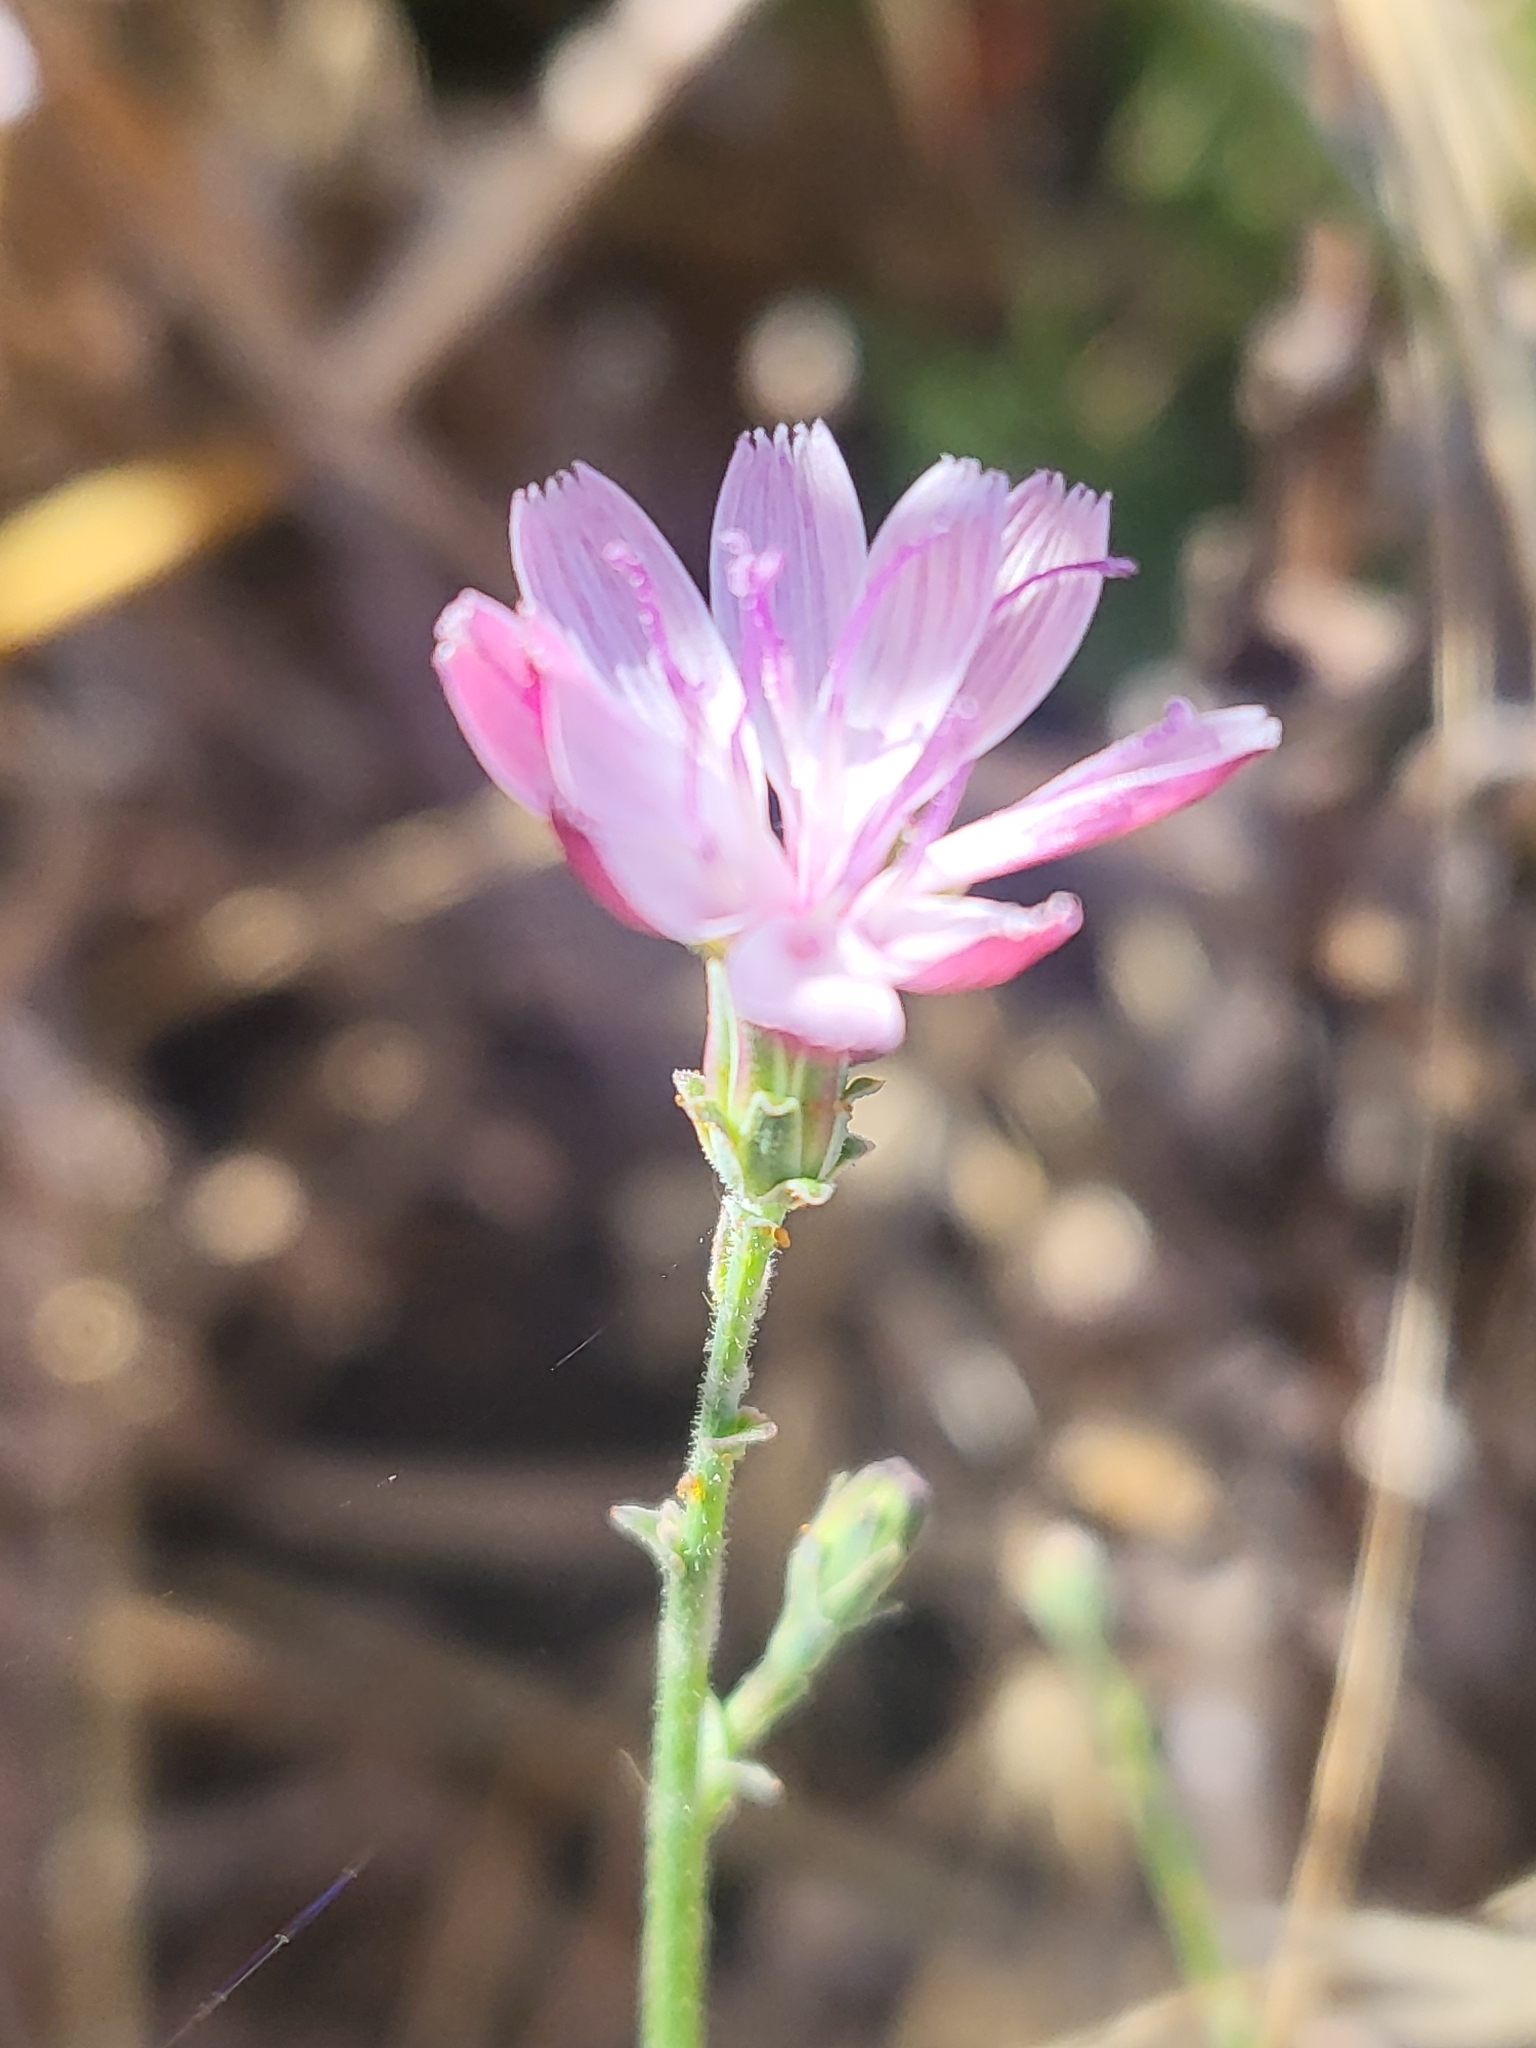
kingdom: Plantae
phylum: Tracheophyta
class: Magnoliopsida
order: Asterales
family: Asteraceae
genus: Stephanomeria
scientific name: Stephanomeria virgata
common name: Virgate wirelettuce
